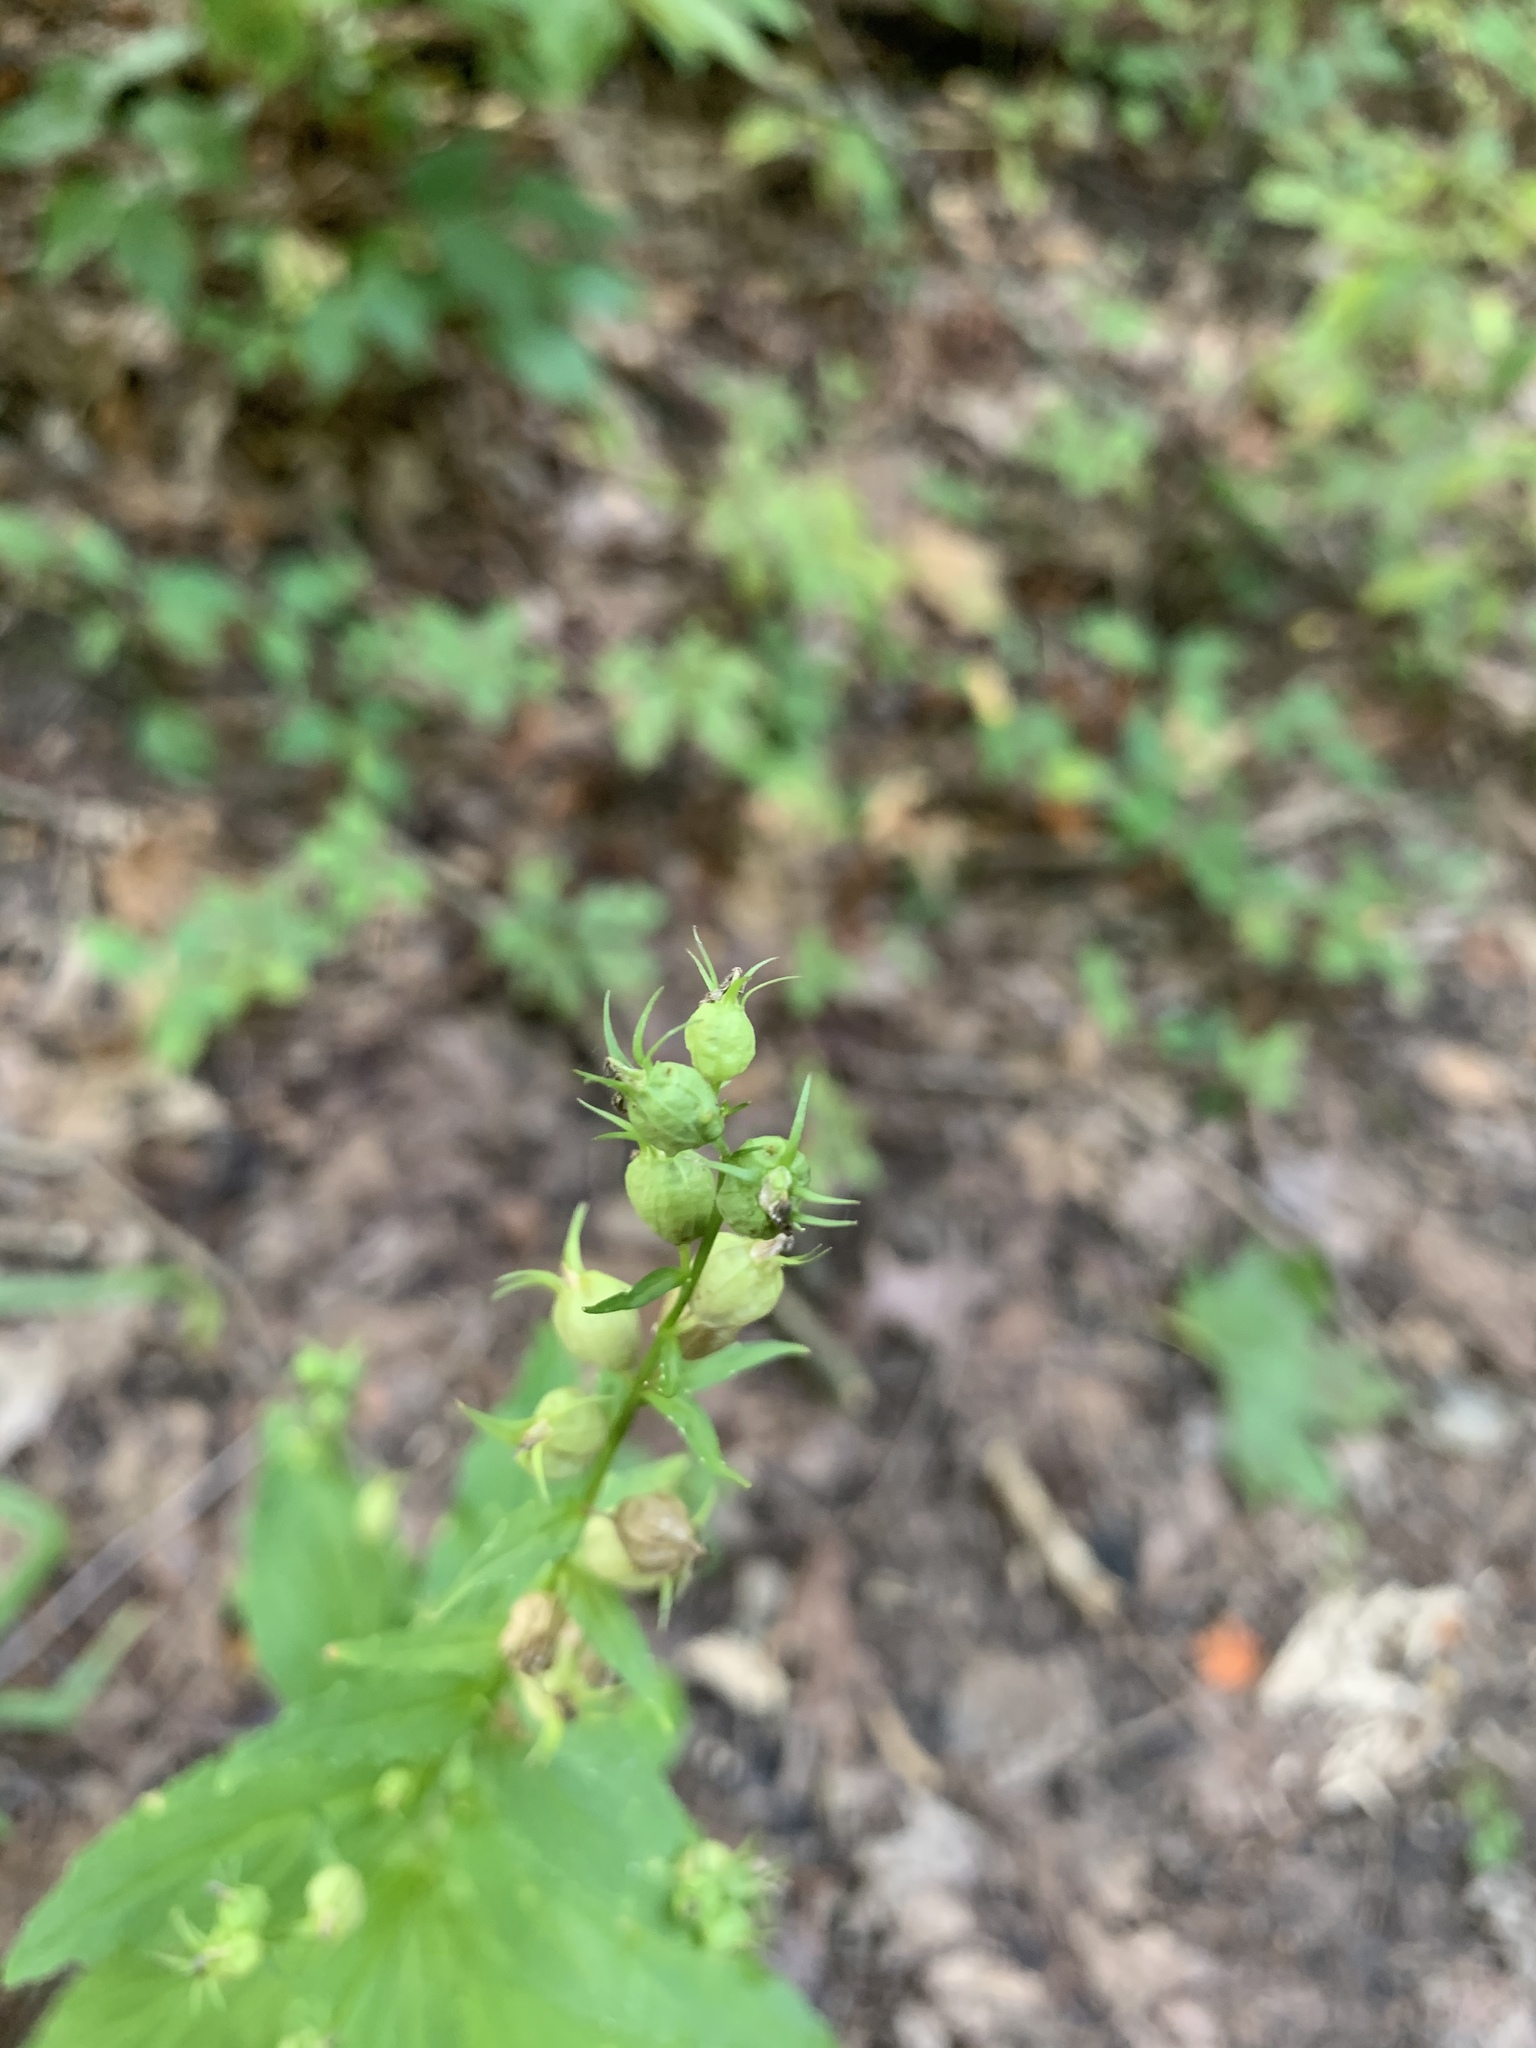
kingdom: Plantae
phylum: Tracheophyta
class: Magnoliopsida
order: Asterales
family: Campanulaceae
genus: Lobelia
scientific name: Lobelia inflata
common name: Indian tobacco
